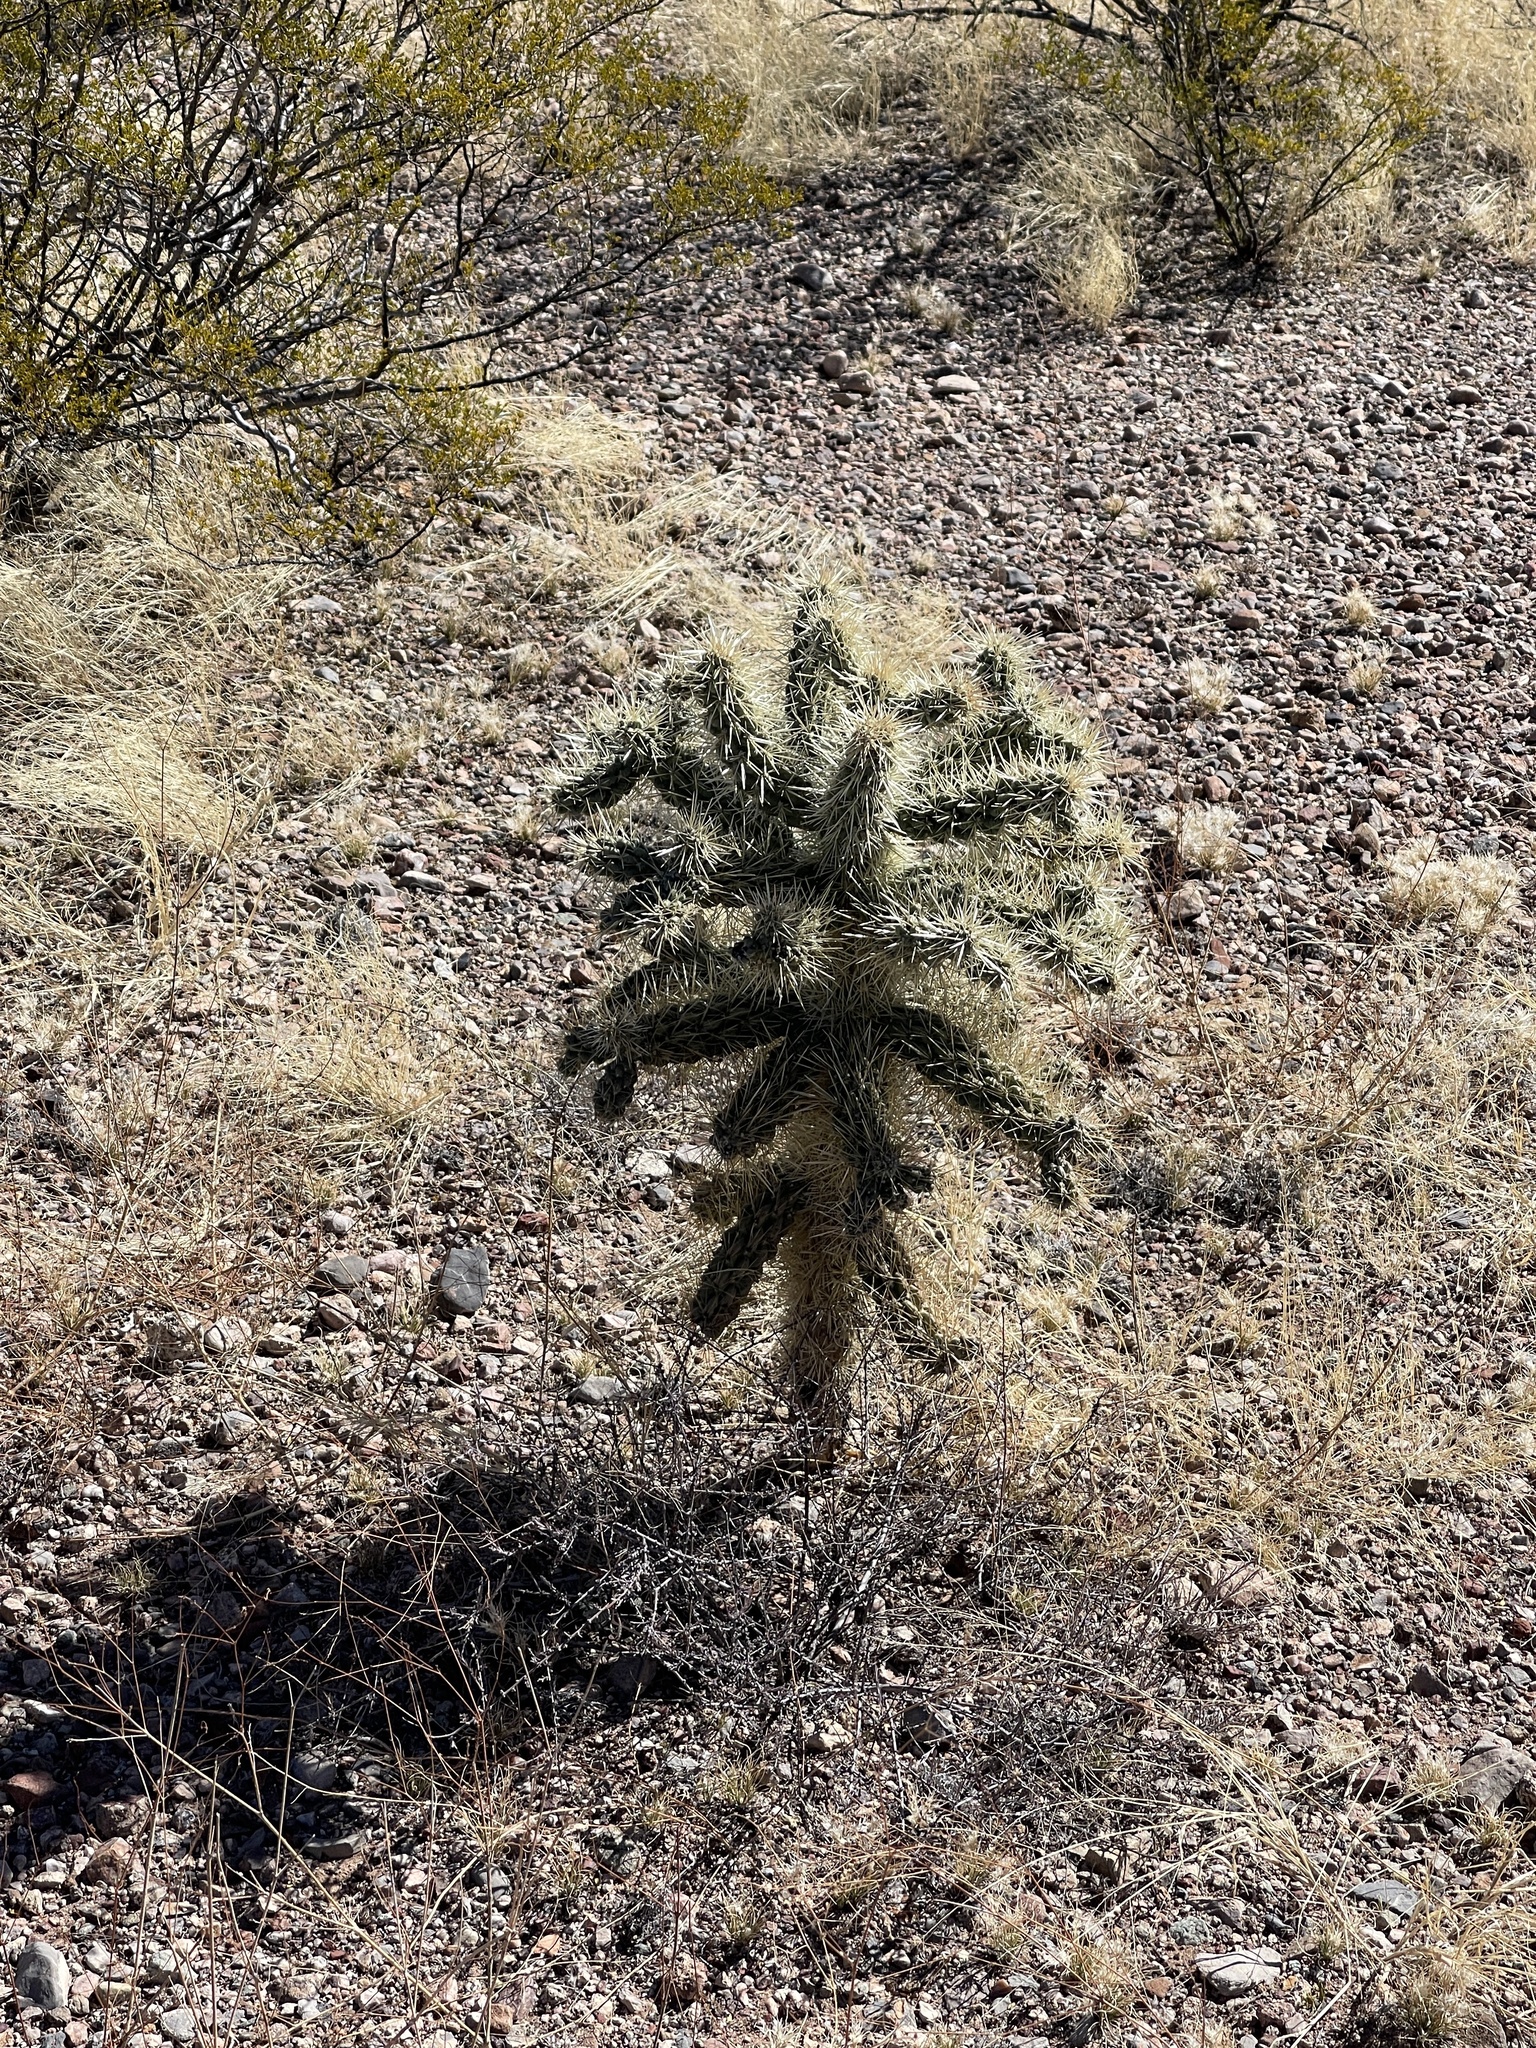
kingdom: Plantae
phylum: Tracheophyta
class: Magnoliopsida
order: Caryophyllales
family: Cactaceae
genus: Cylindropuntia
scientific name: Cylindropuntia fulgida
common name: Jumping cholla
